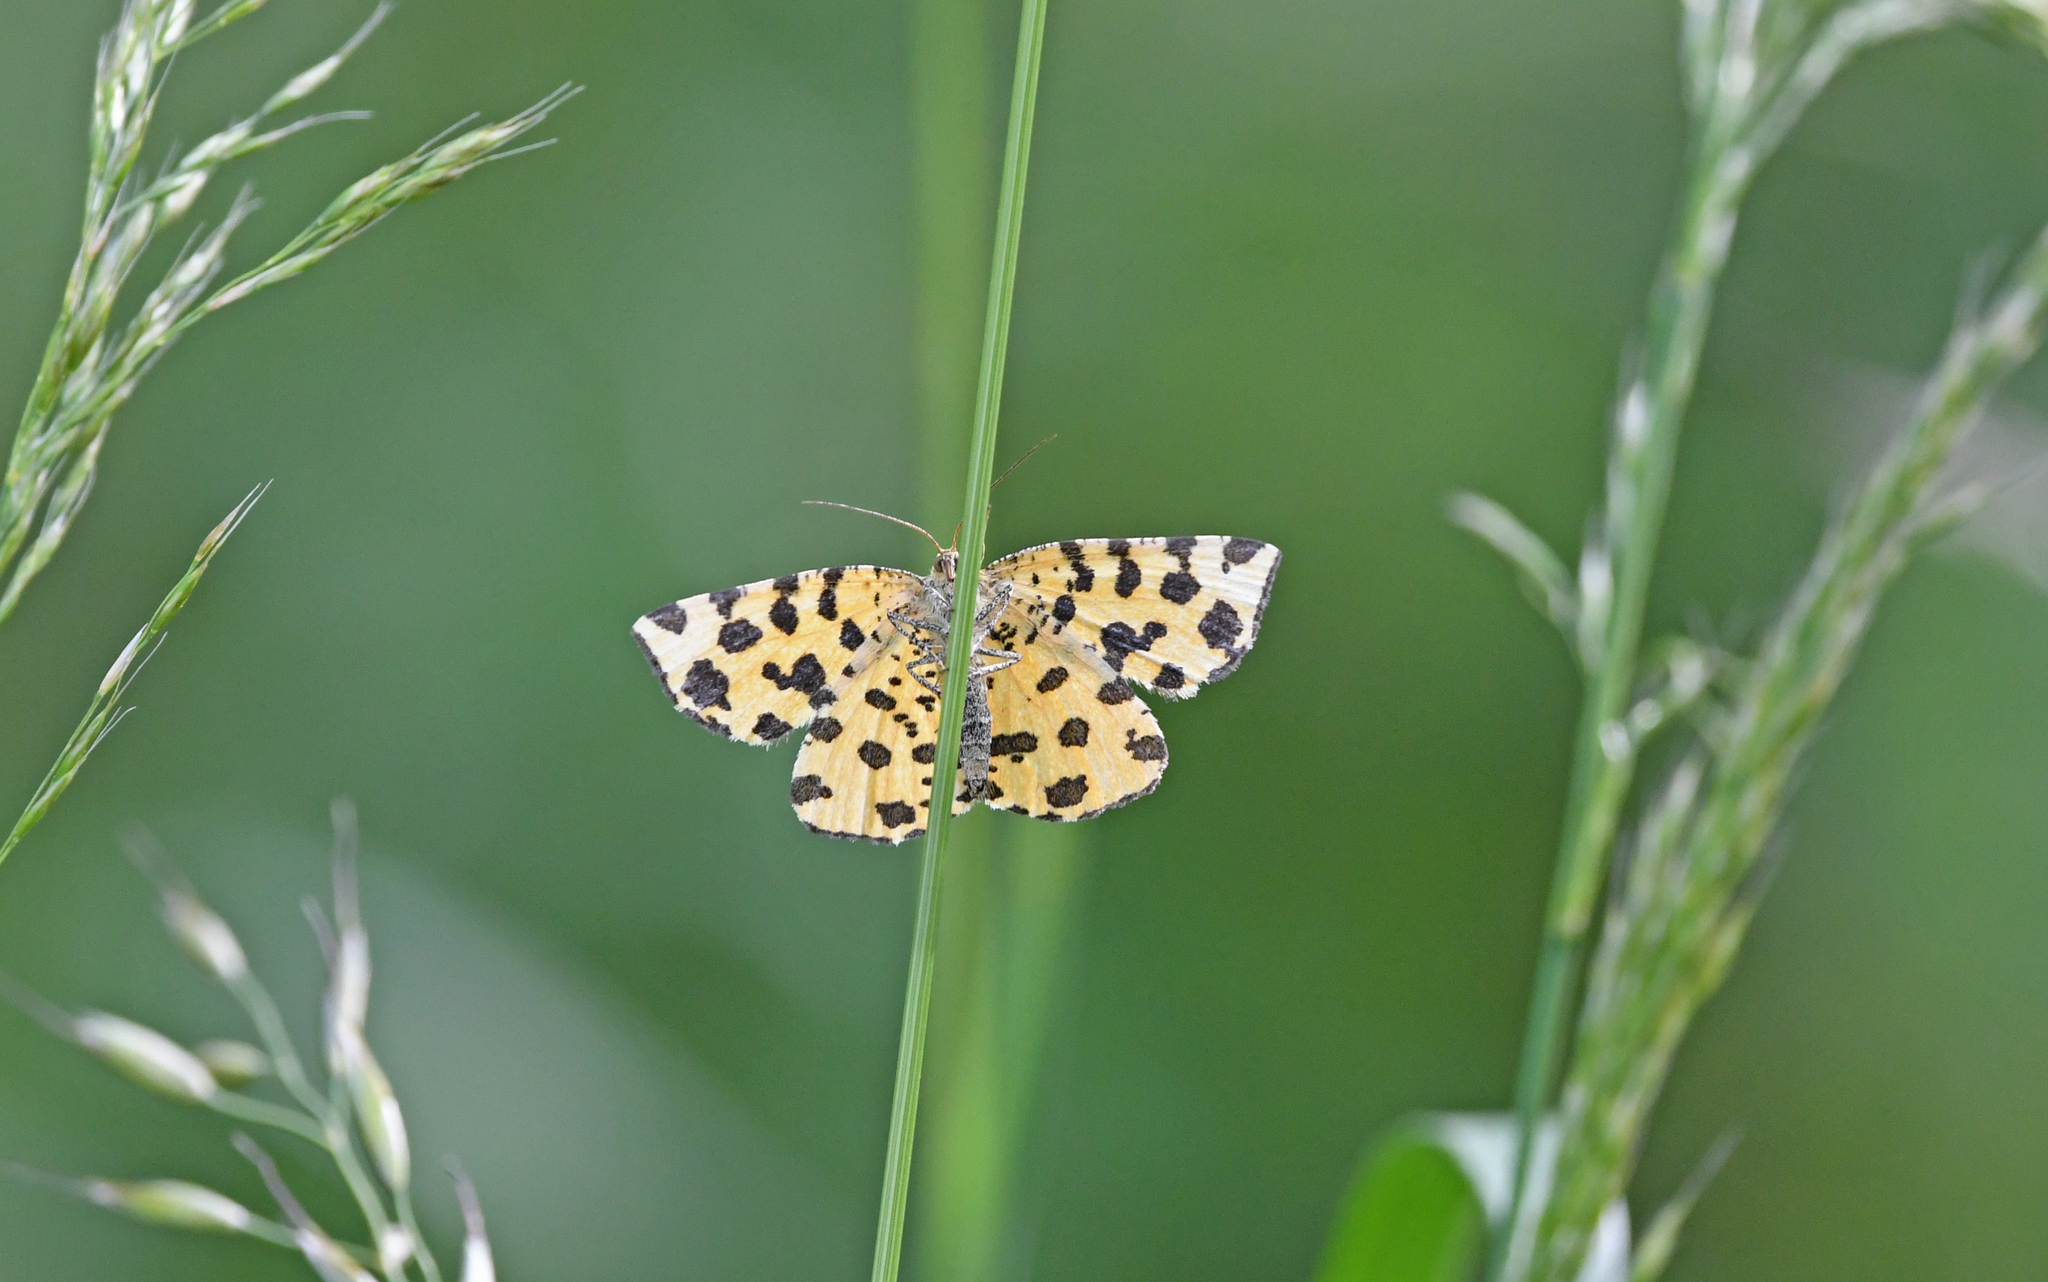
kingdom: Animalia
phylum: Arthropoda
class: Insecta
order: Lepidoptera
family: Geometridae
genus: Pseudopanthera
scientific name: Pseudopanthera macularia
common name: Speckled yellow
